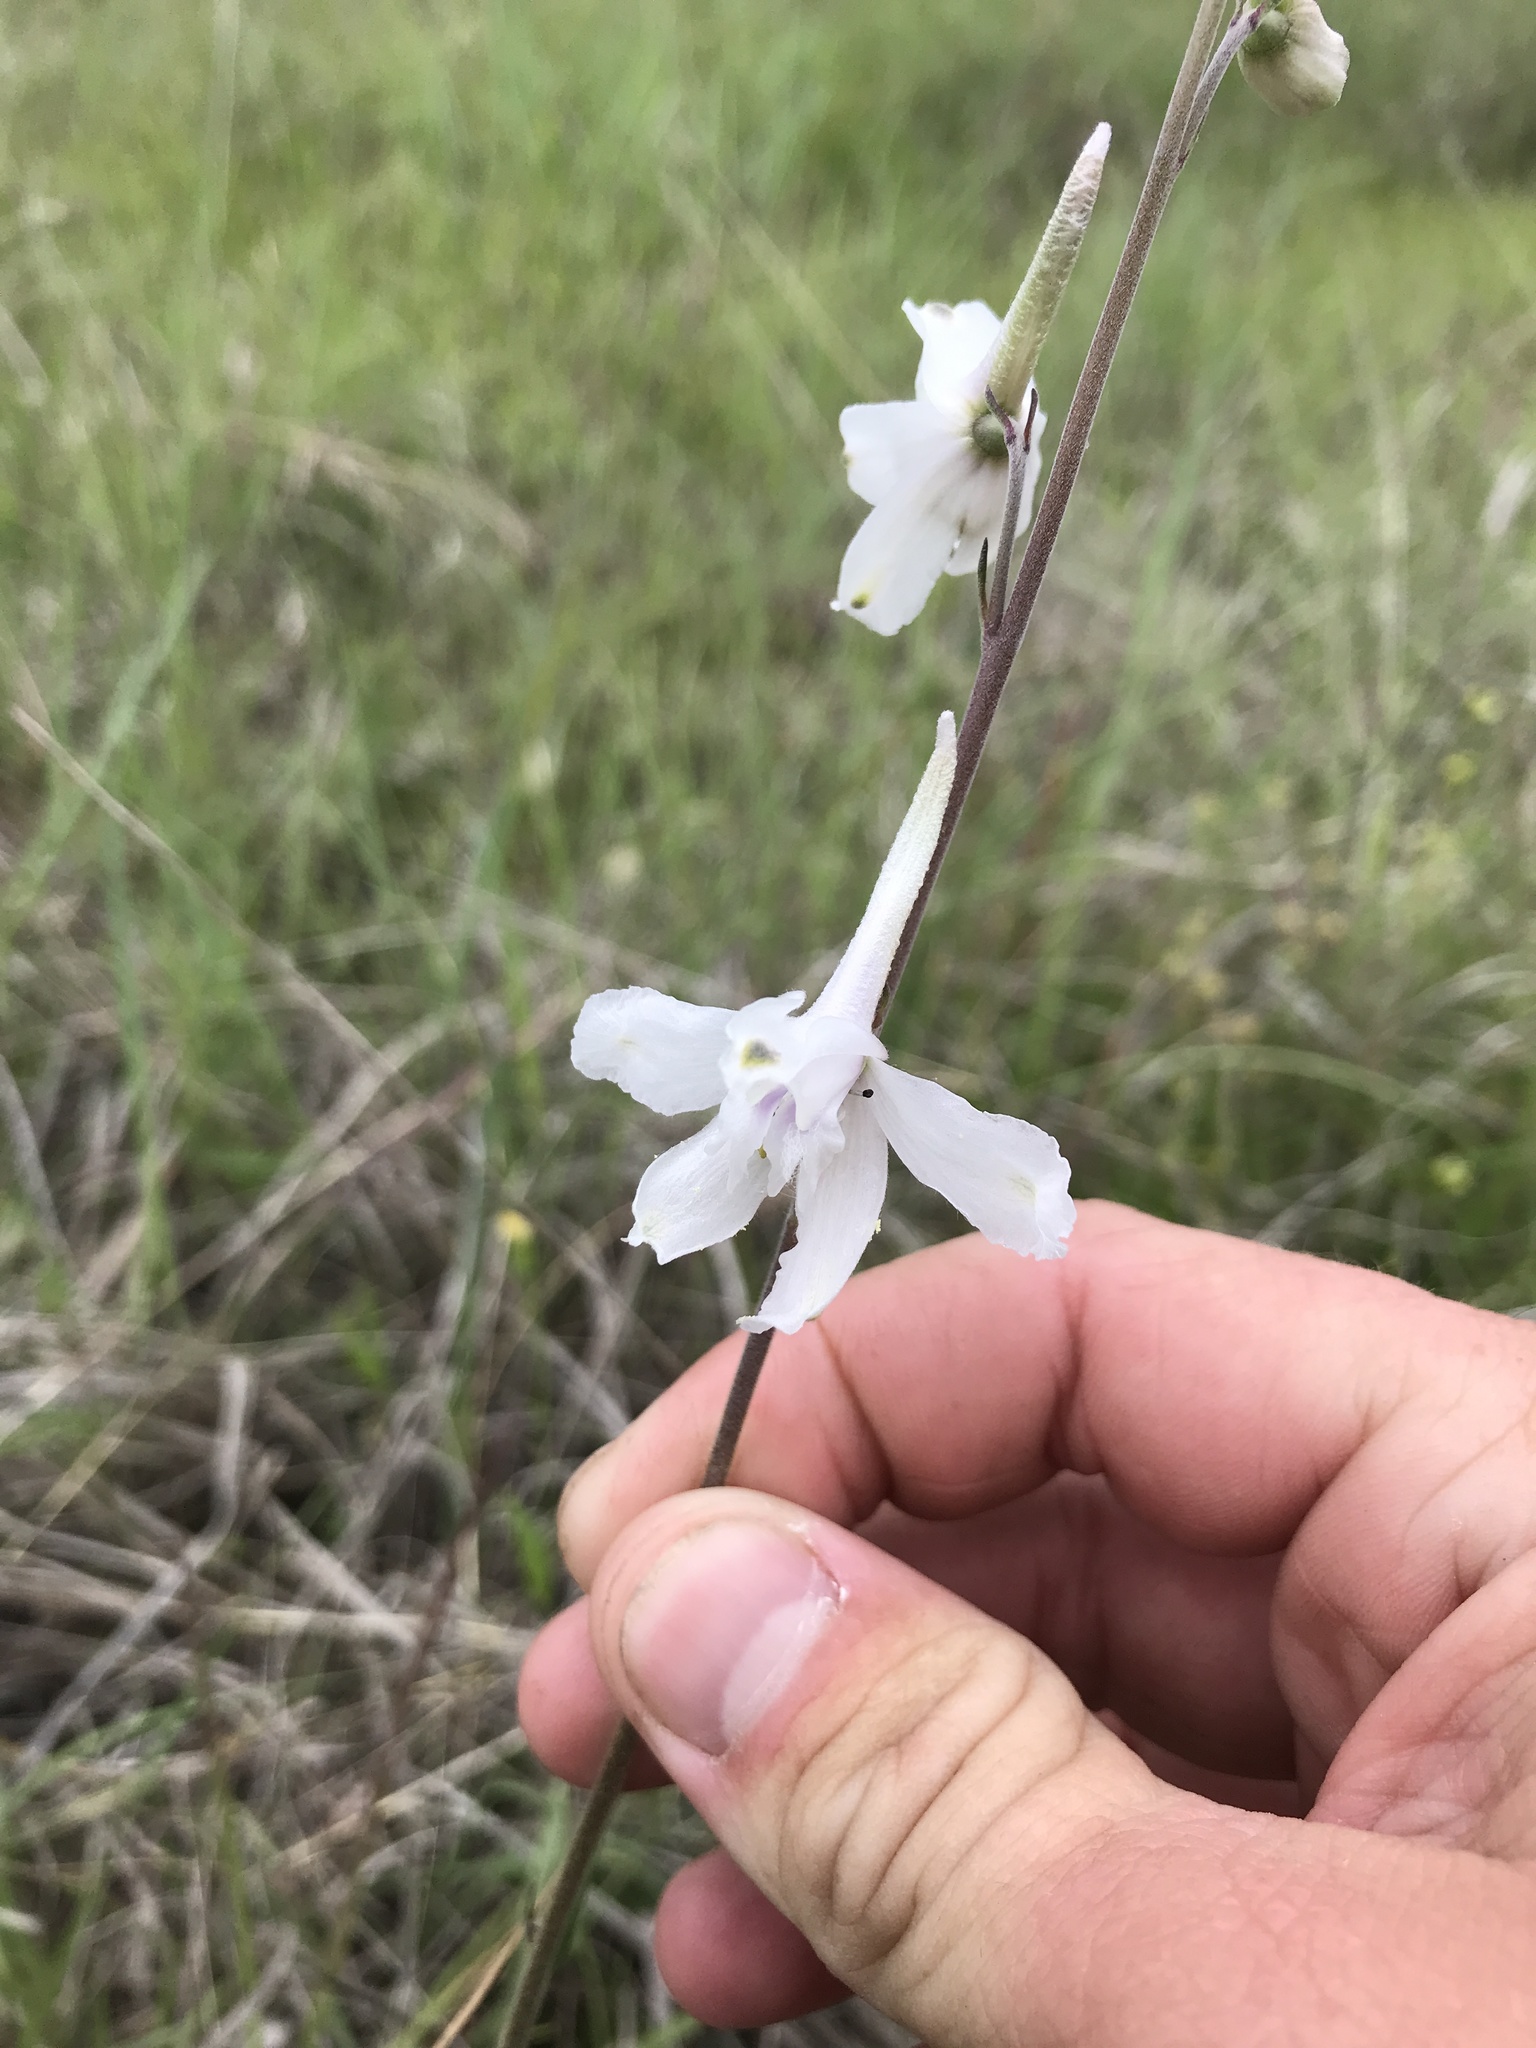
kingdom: Plantae
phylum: Tracheophyta
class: Magnoliopsida
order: Ranunculales
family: Ranunculaceae
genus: Delphinium
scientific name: Delphinium carolinianum
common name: Carolina larkspur
